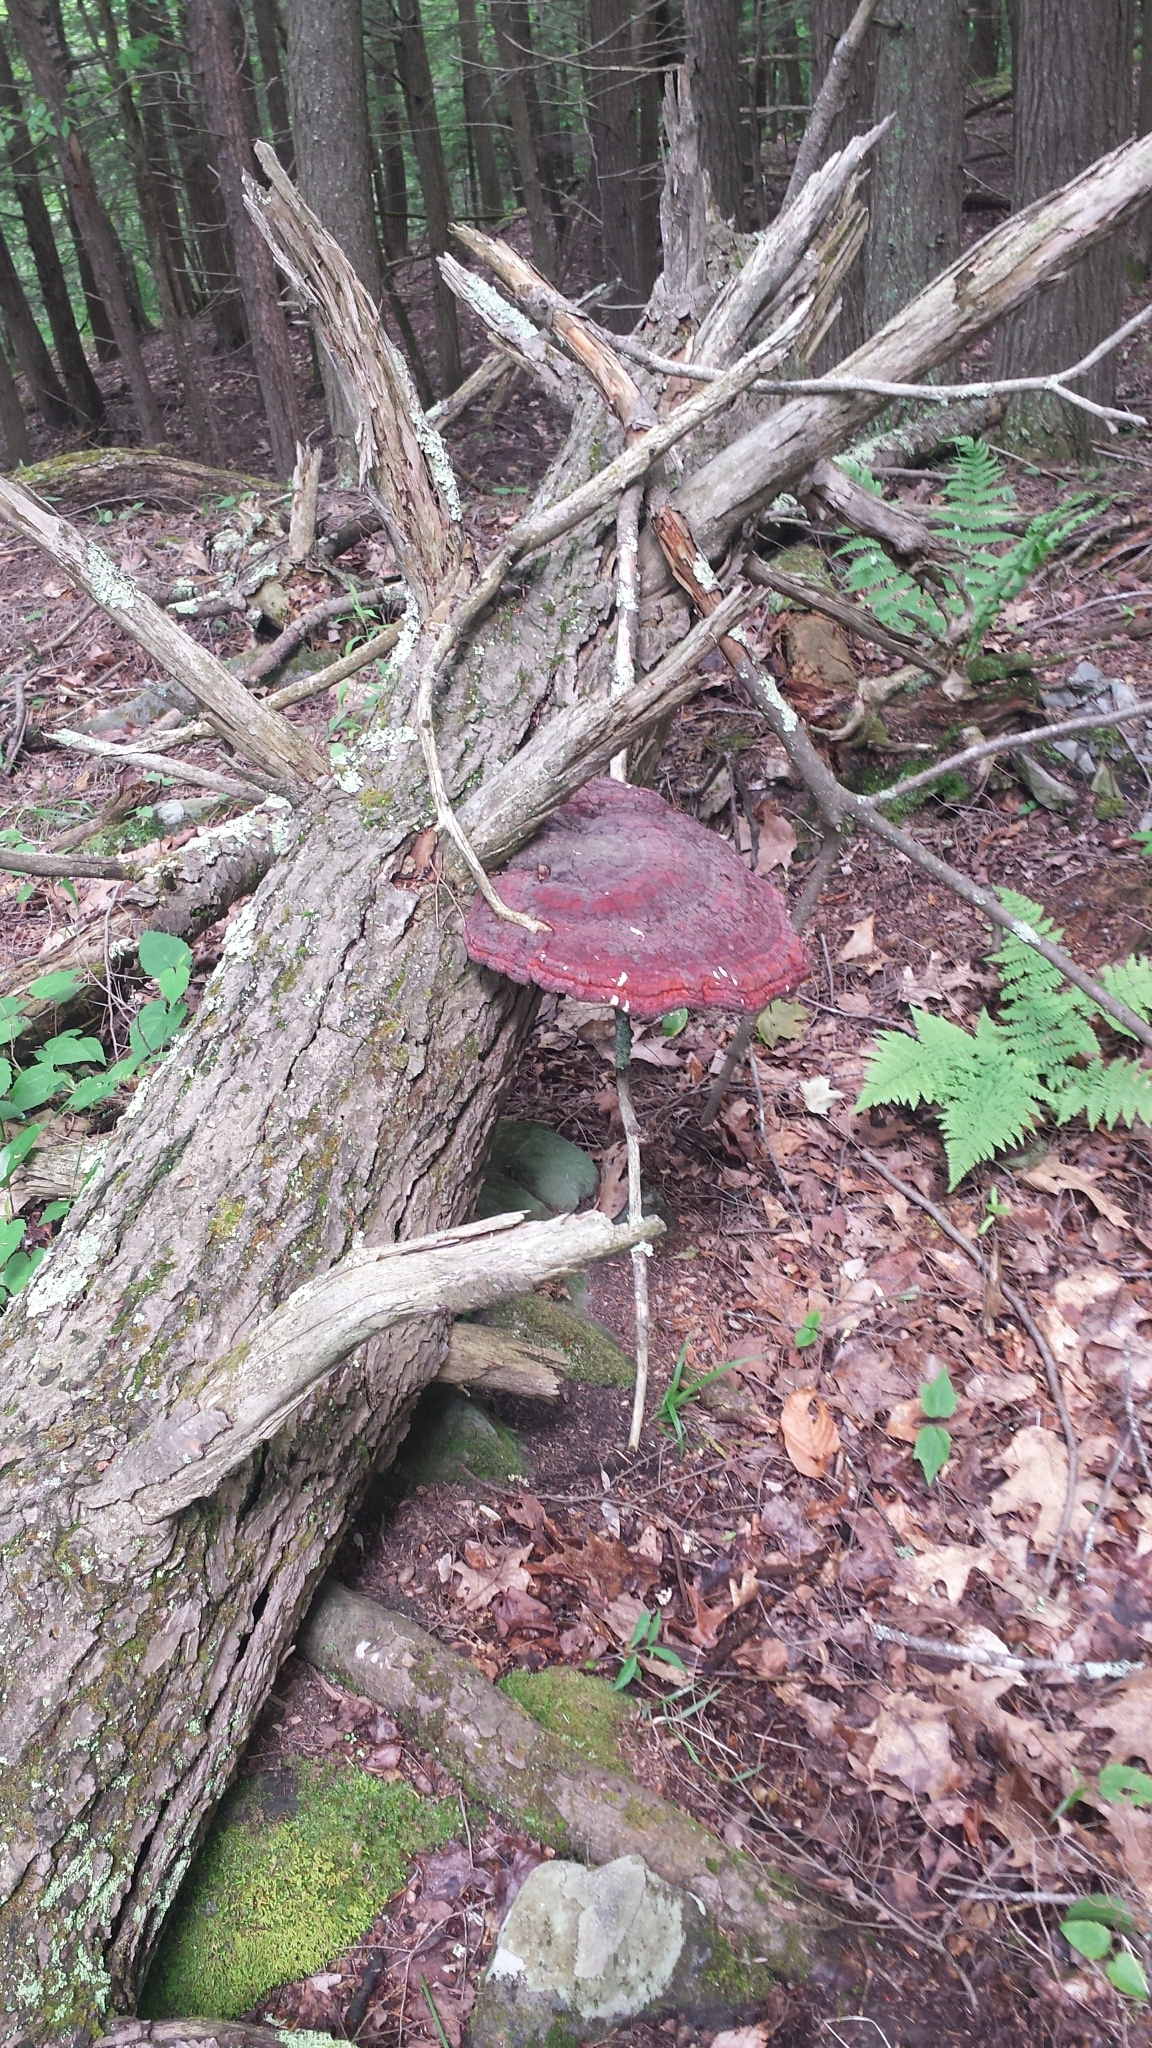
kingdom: Fungi
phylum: Basidiomycota
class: Agaricomycetes
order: Polyporales
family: Polyporaceae
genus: Ganoderma
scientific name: Ganoderma tsugae
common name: Hemlock varnish shelf
